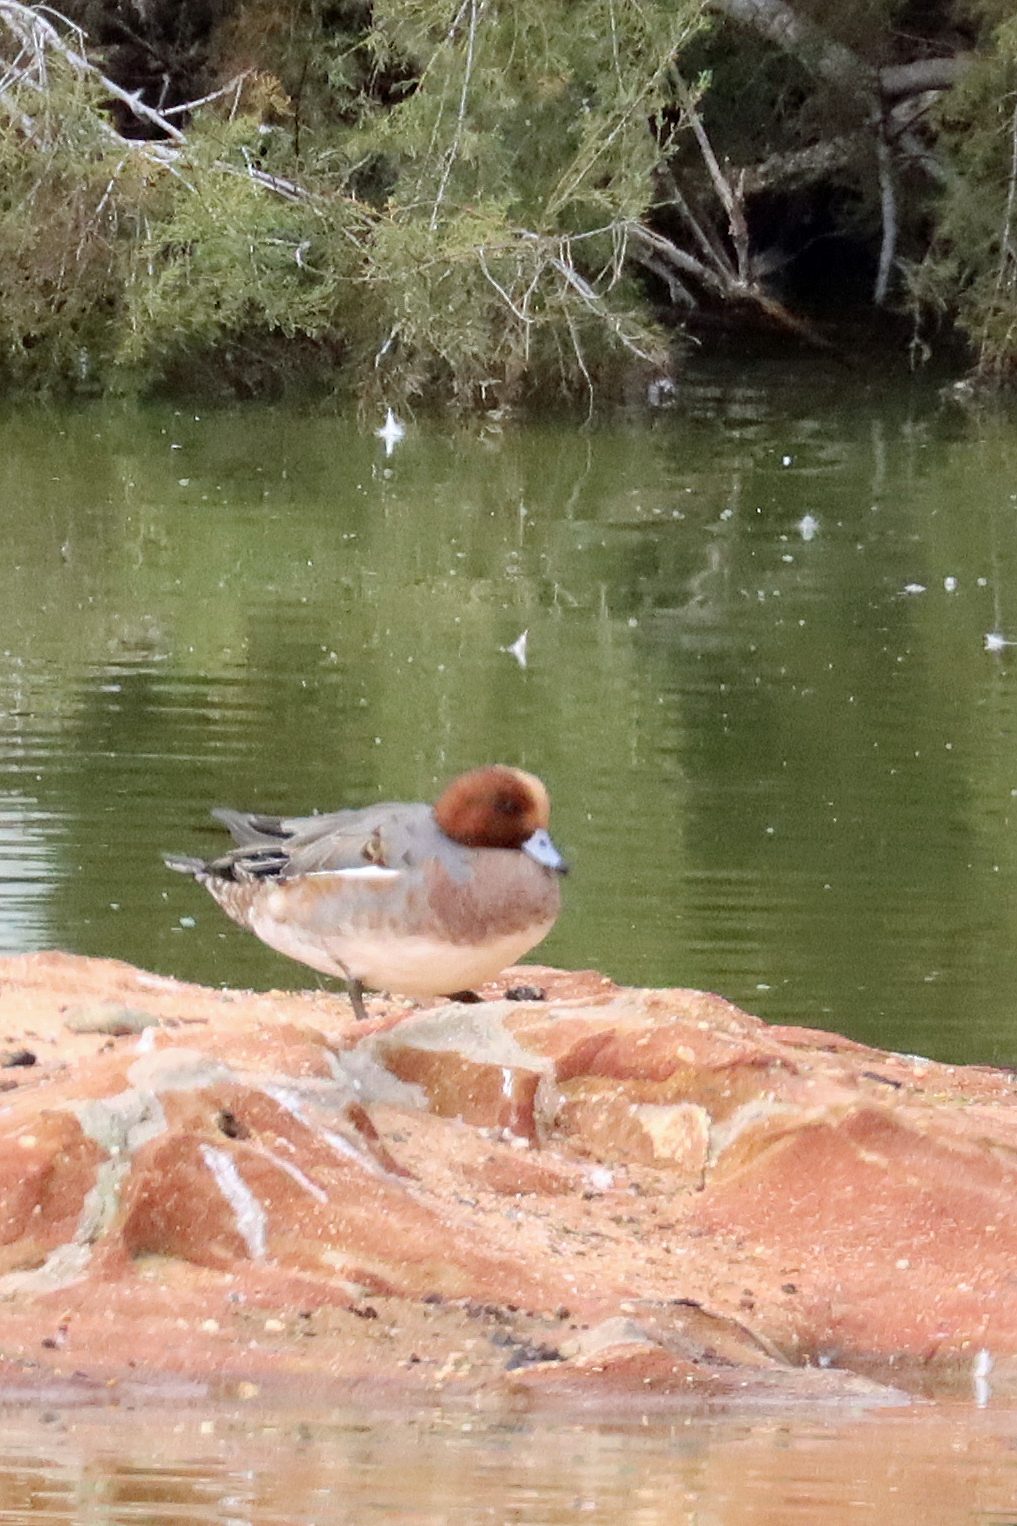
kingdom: Animalia
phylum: Chordata
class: Aves
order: Anseriformes
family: Anatidae
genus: Mareca
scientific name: Mareca penelope
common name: Eurasian wigeon
